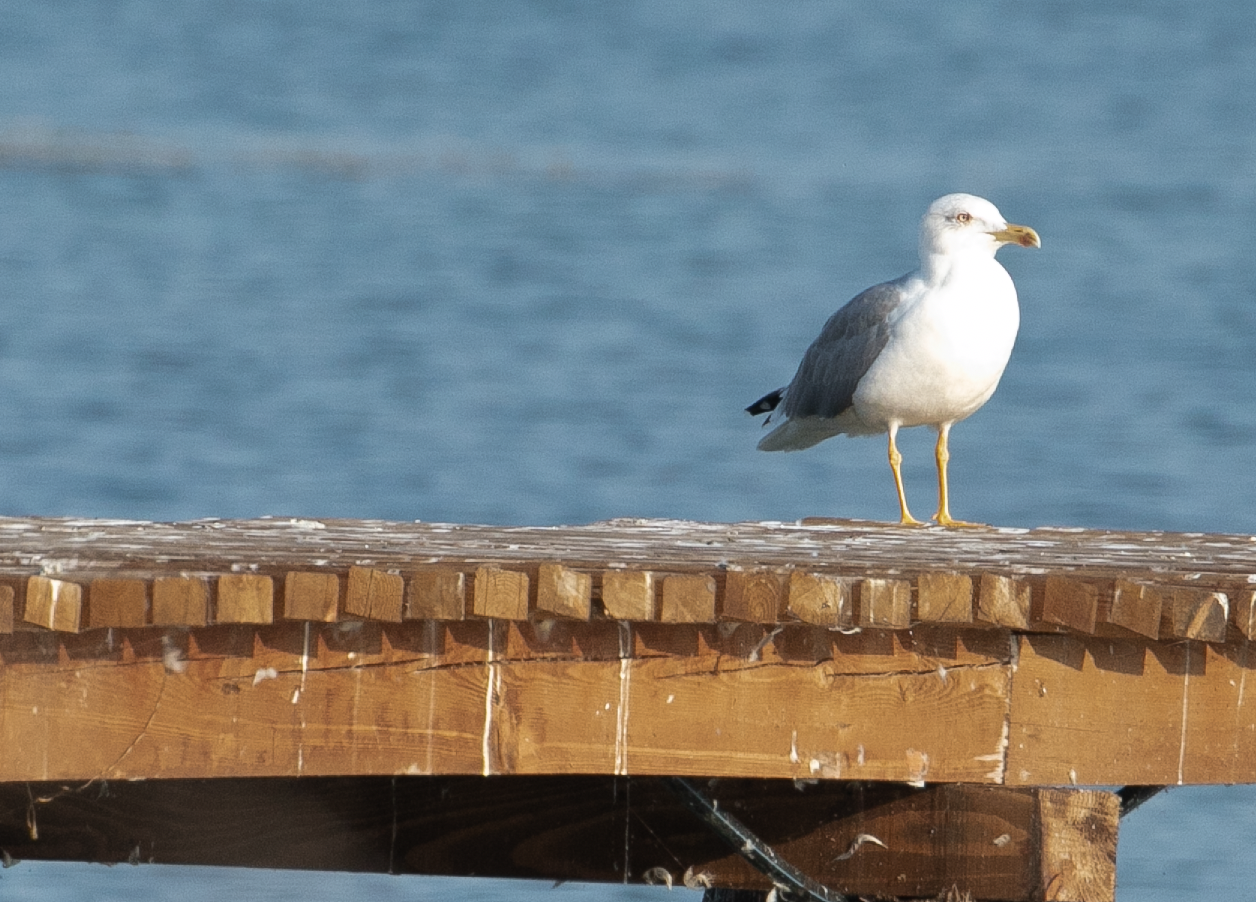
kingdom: Animalia
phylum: Chordata
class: Aves
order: Charadriiformes
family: Laridae
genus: Larus
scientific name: Larus michahellis
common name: Yellow-legged gull
